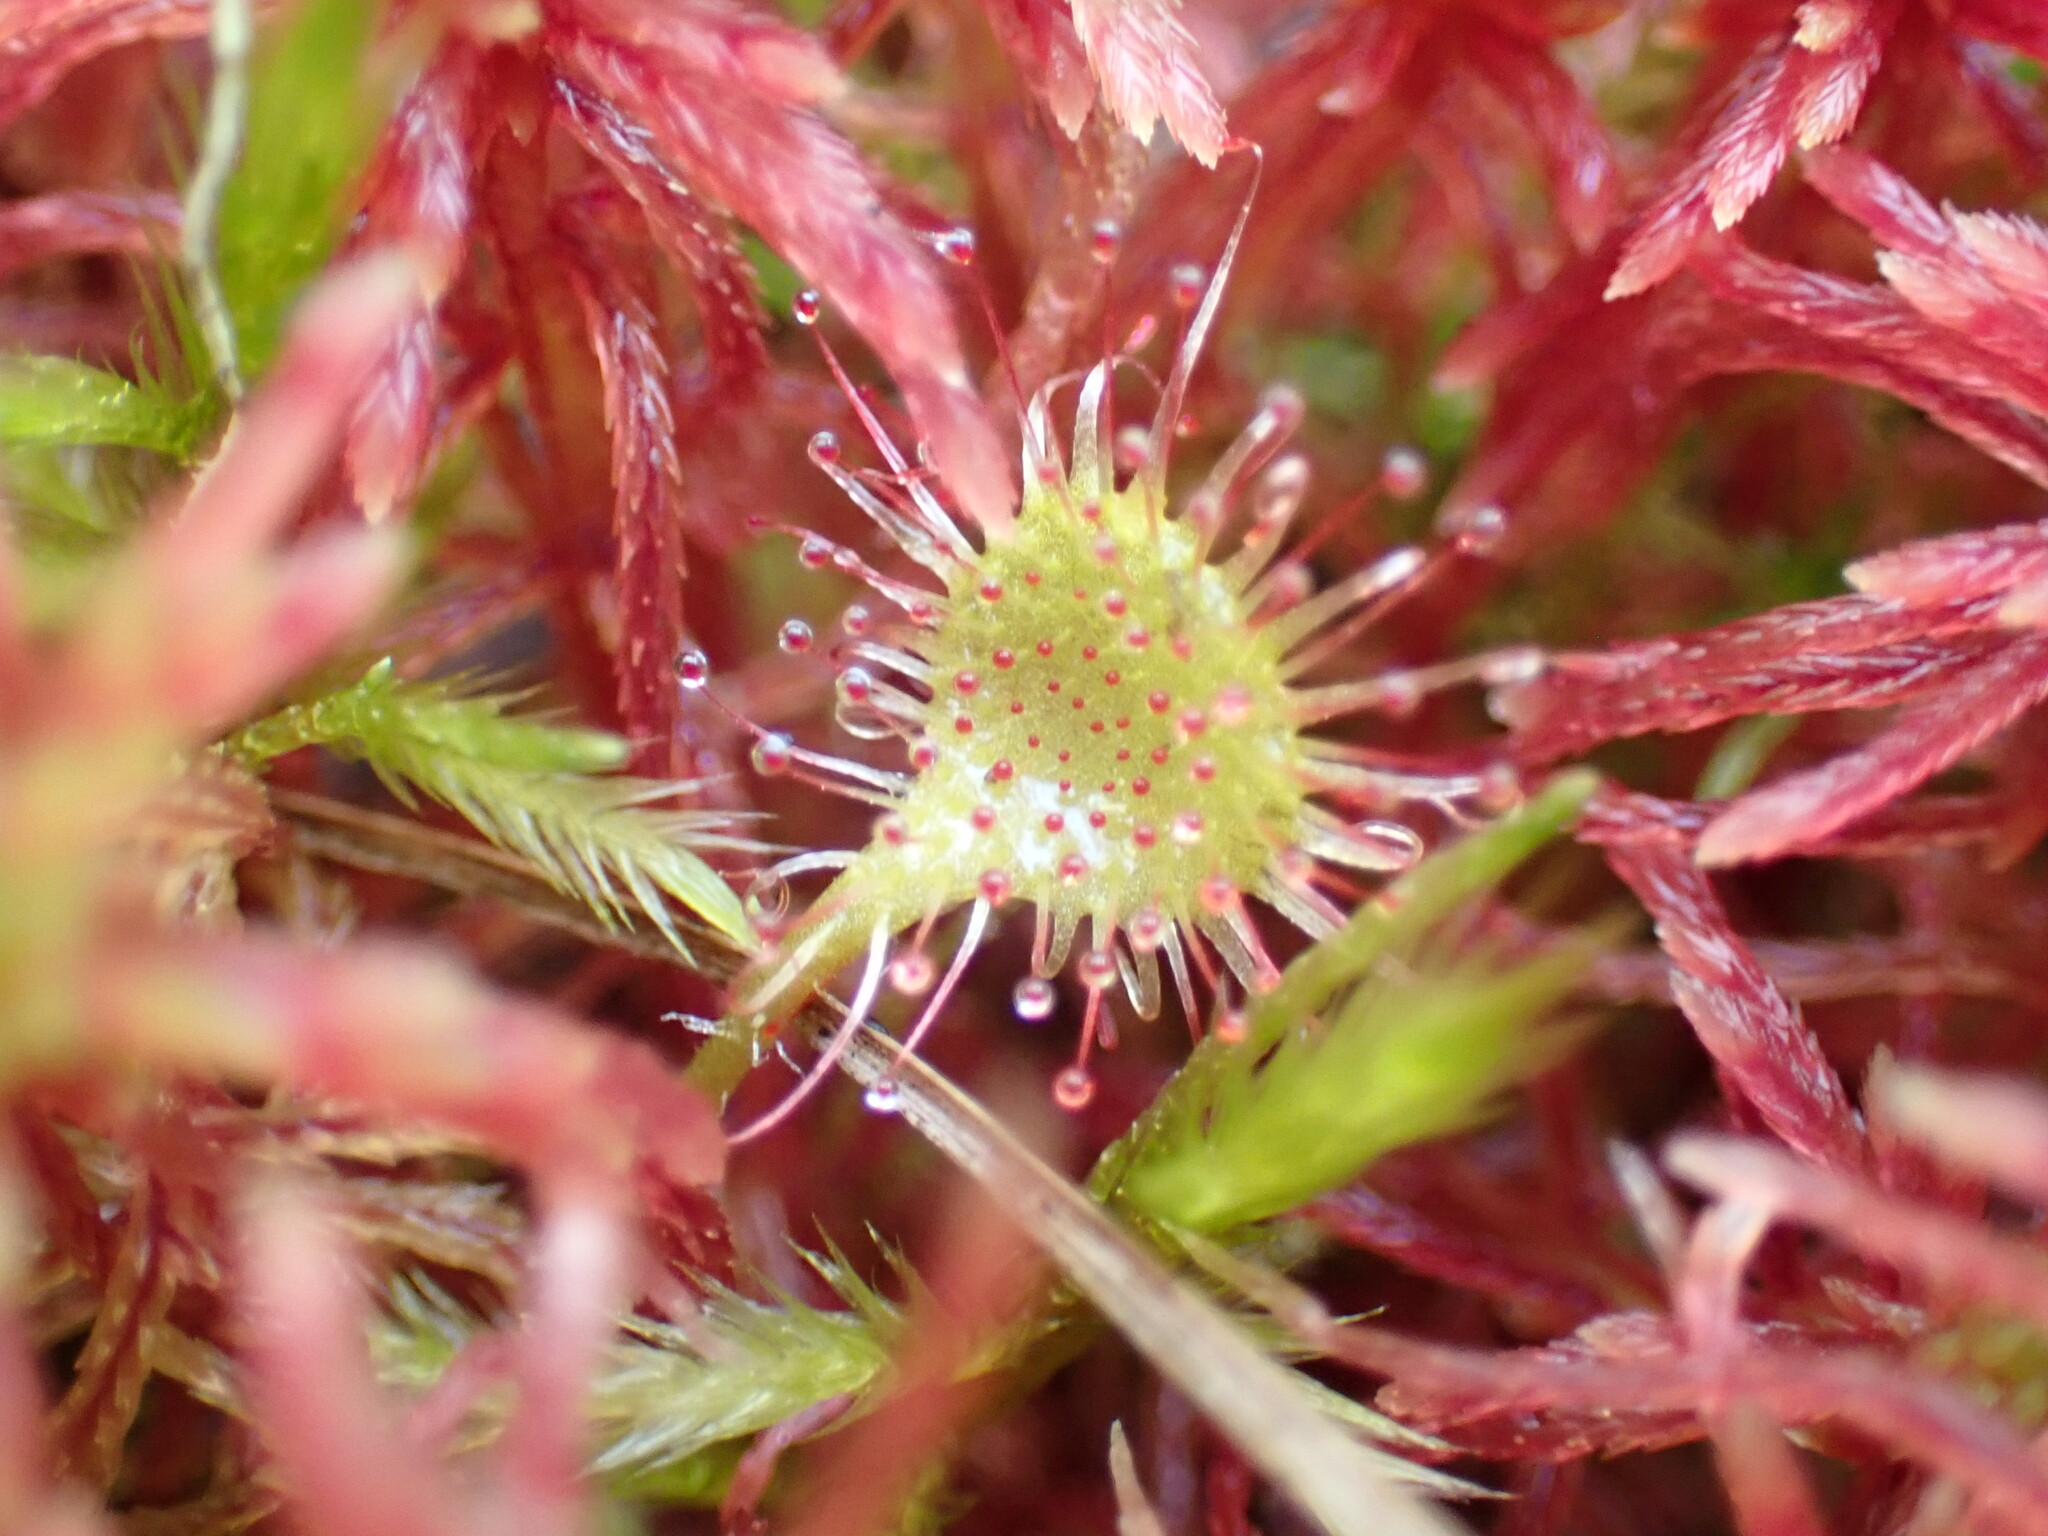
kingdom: Plantae
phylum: Tracheophyta
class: Magnoliopsida
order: Caryophyllales
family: Droseraceae
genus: Drosera
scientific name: Drosera rotundifolia
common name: Round-leaved sundew
